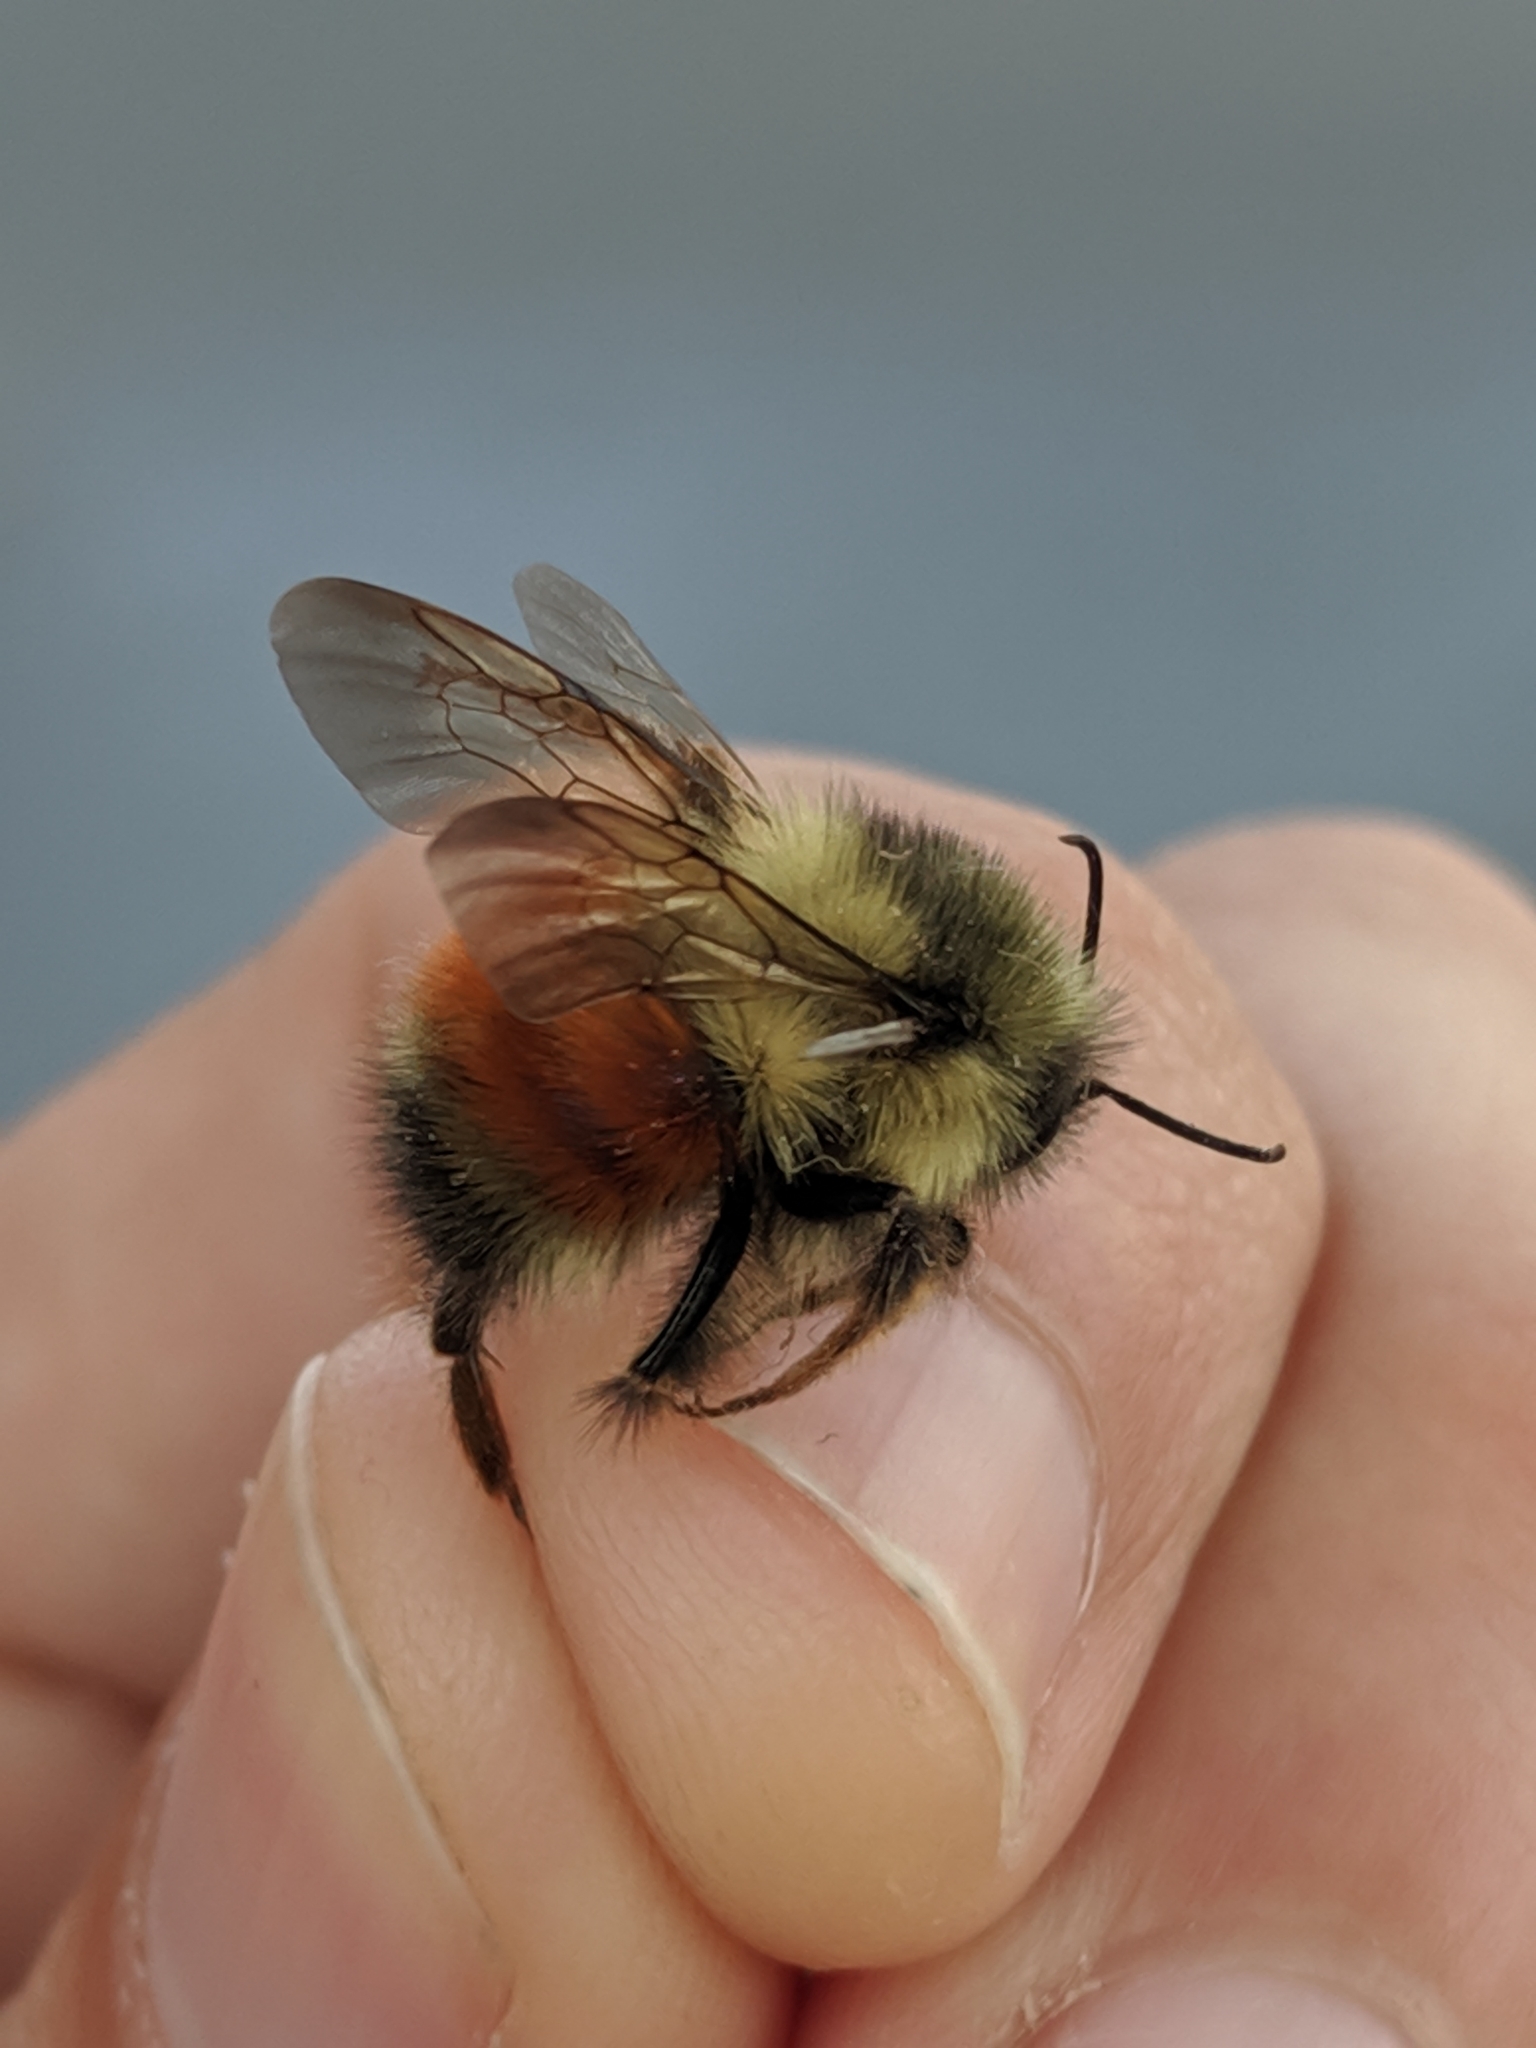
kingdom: Animalia
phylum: Arthropoda
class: Insecta
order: Hymenoptera
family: Apidae
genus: Bombus
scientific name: Bombus melanopygus
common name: Black tail bumble bee
